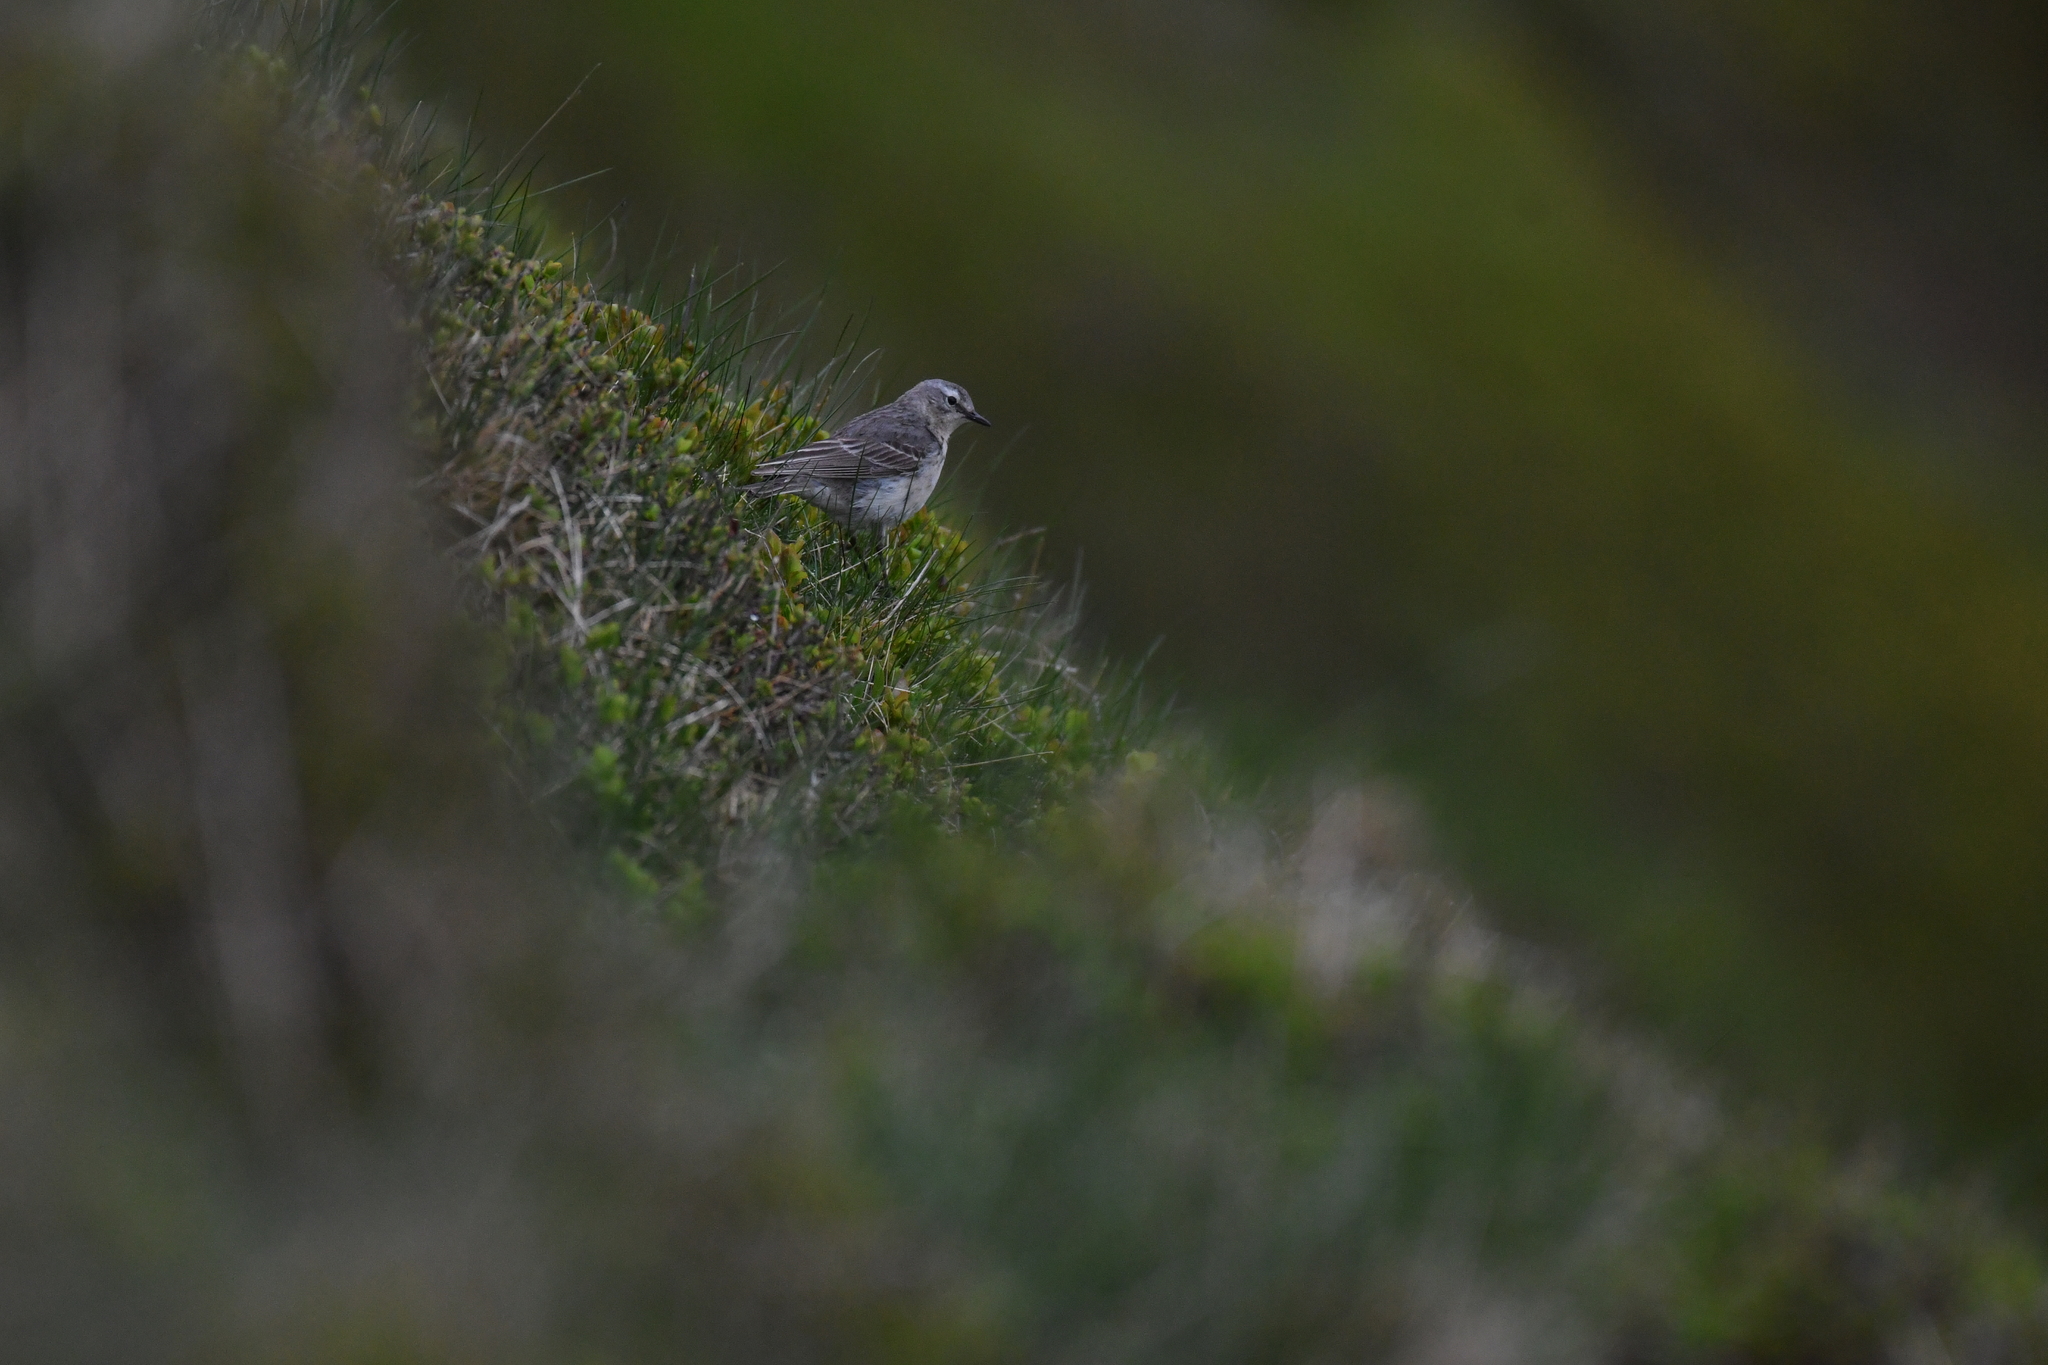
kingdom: Animalia
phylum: Chordata
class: Aves
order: Passeriformes
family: Motacillidae
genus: Anthus
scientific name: Anthus spinoletta
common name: Water pipit
